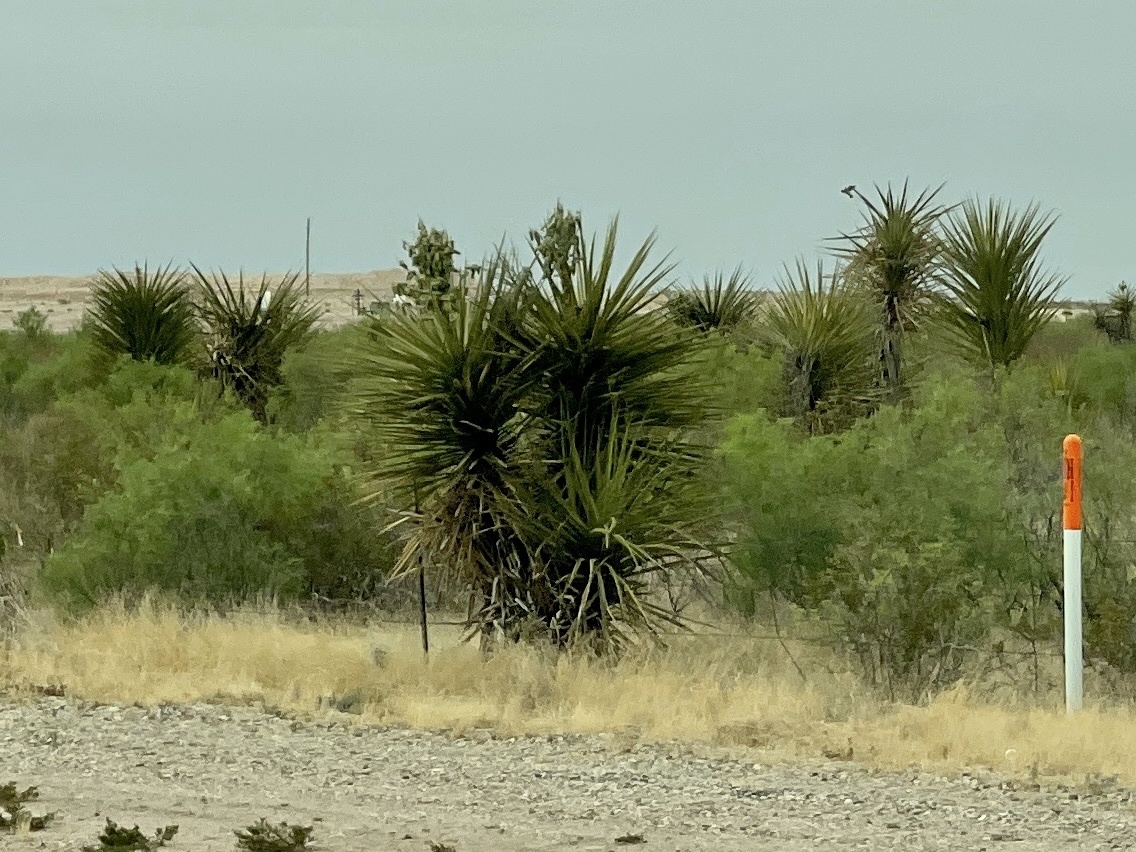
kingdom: Plantae
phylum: Tracheophyta
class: Liliopsida
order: Asparagales
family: Asparagaceae
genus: Yucca
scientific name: Yucca treculiana
